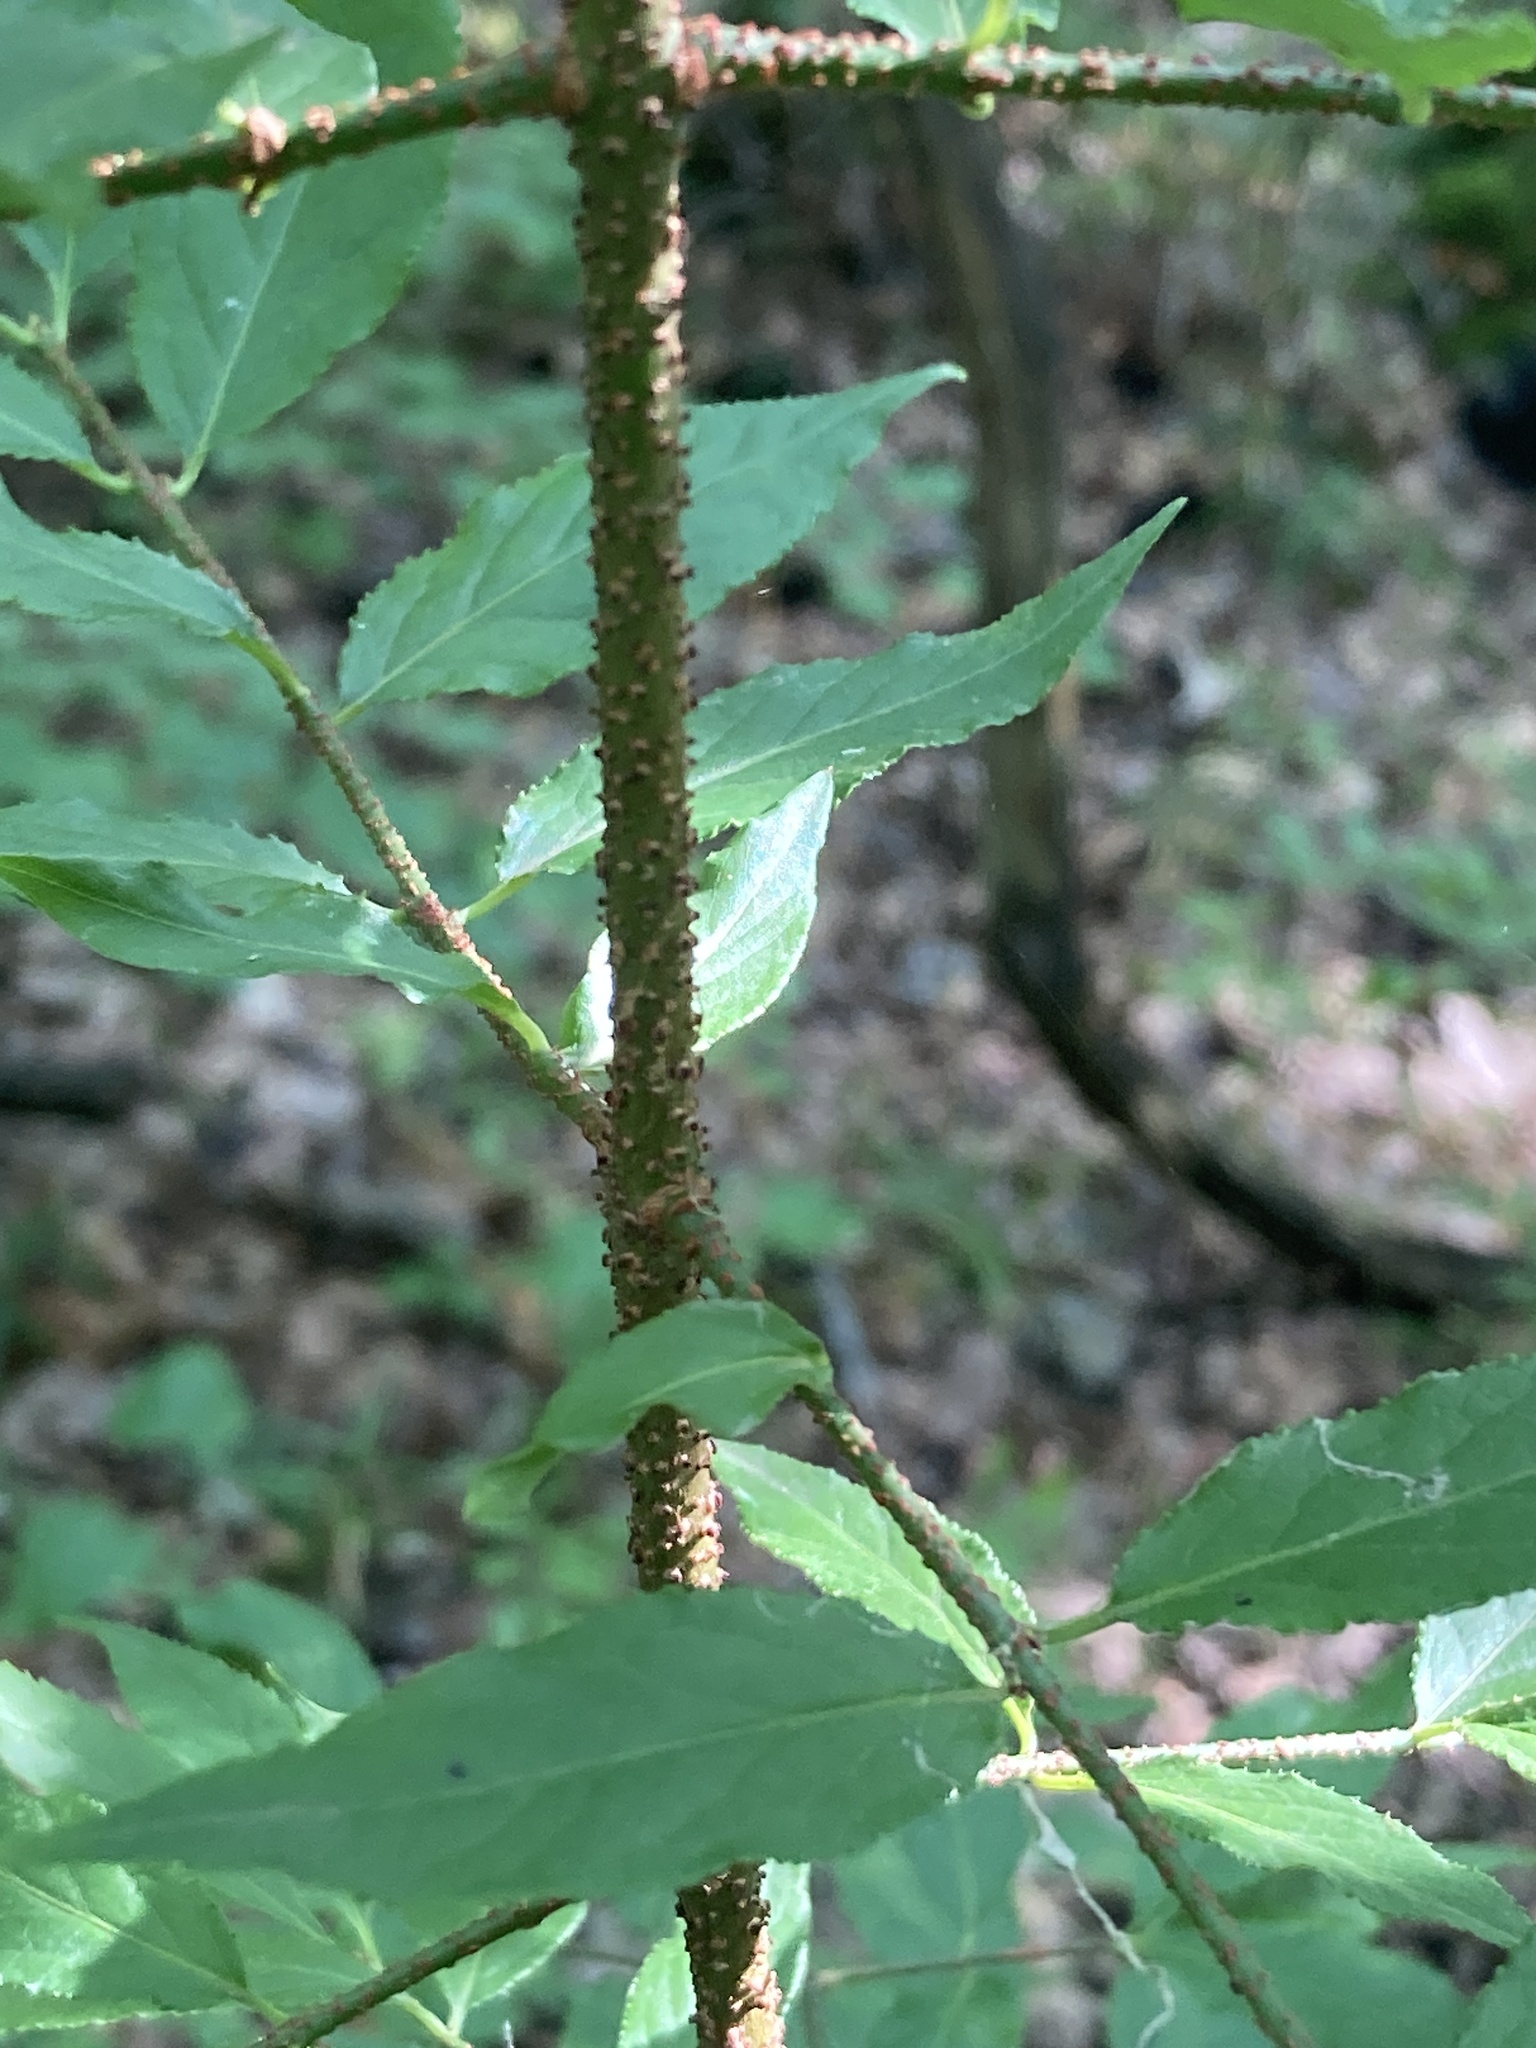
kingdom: Plantae
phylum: Tracheophyta
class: Magnoliopsida
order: Celastrales
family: Celastraceae
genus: Euonymus
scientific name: Euonymus verrucosus
